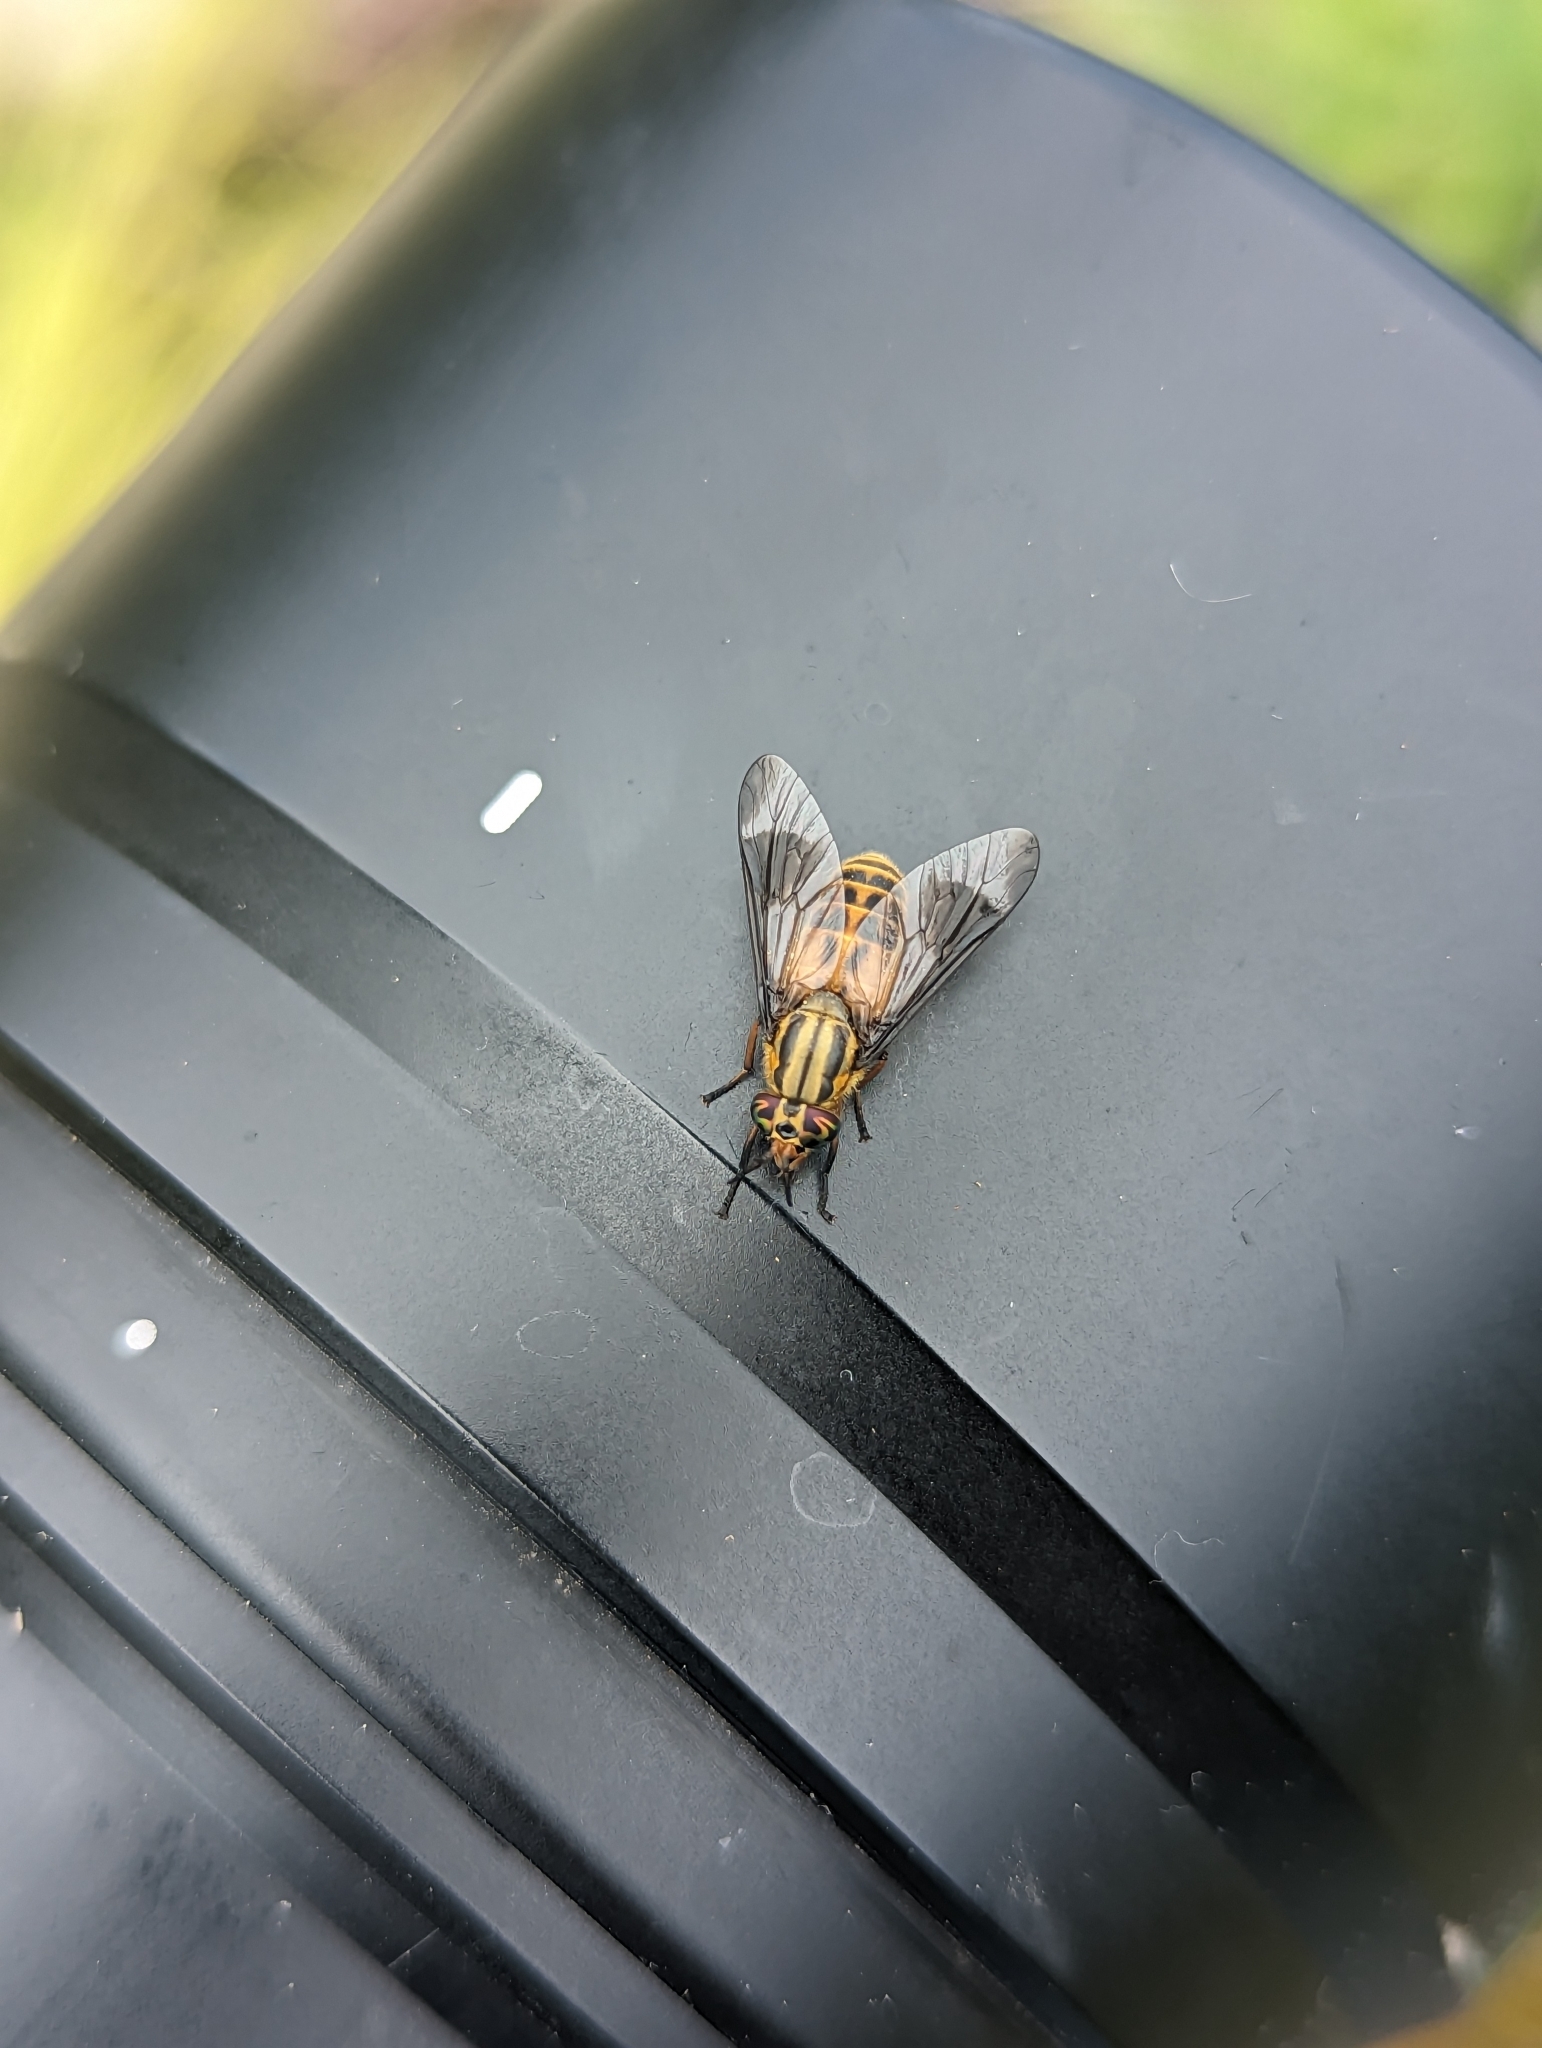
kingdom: Animalia
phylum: Arthropoda
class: Insecta
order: Diptera
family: Tabanidae
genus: Chrysops
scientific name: Chrysops lateralis
